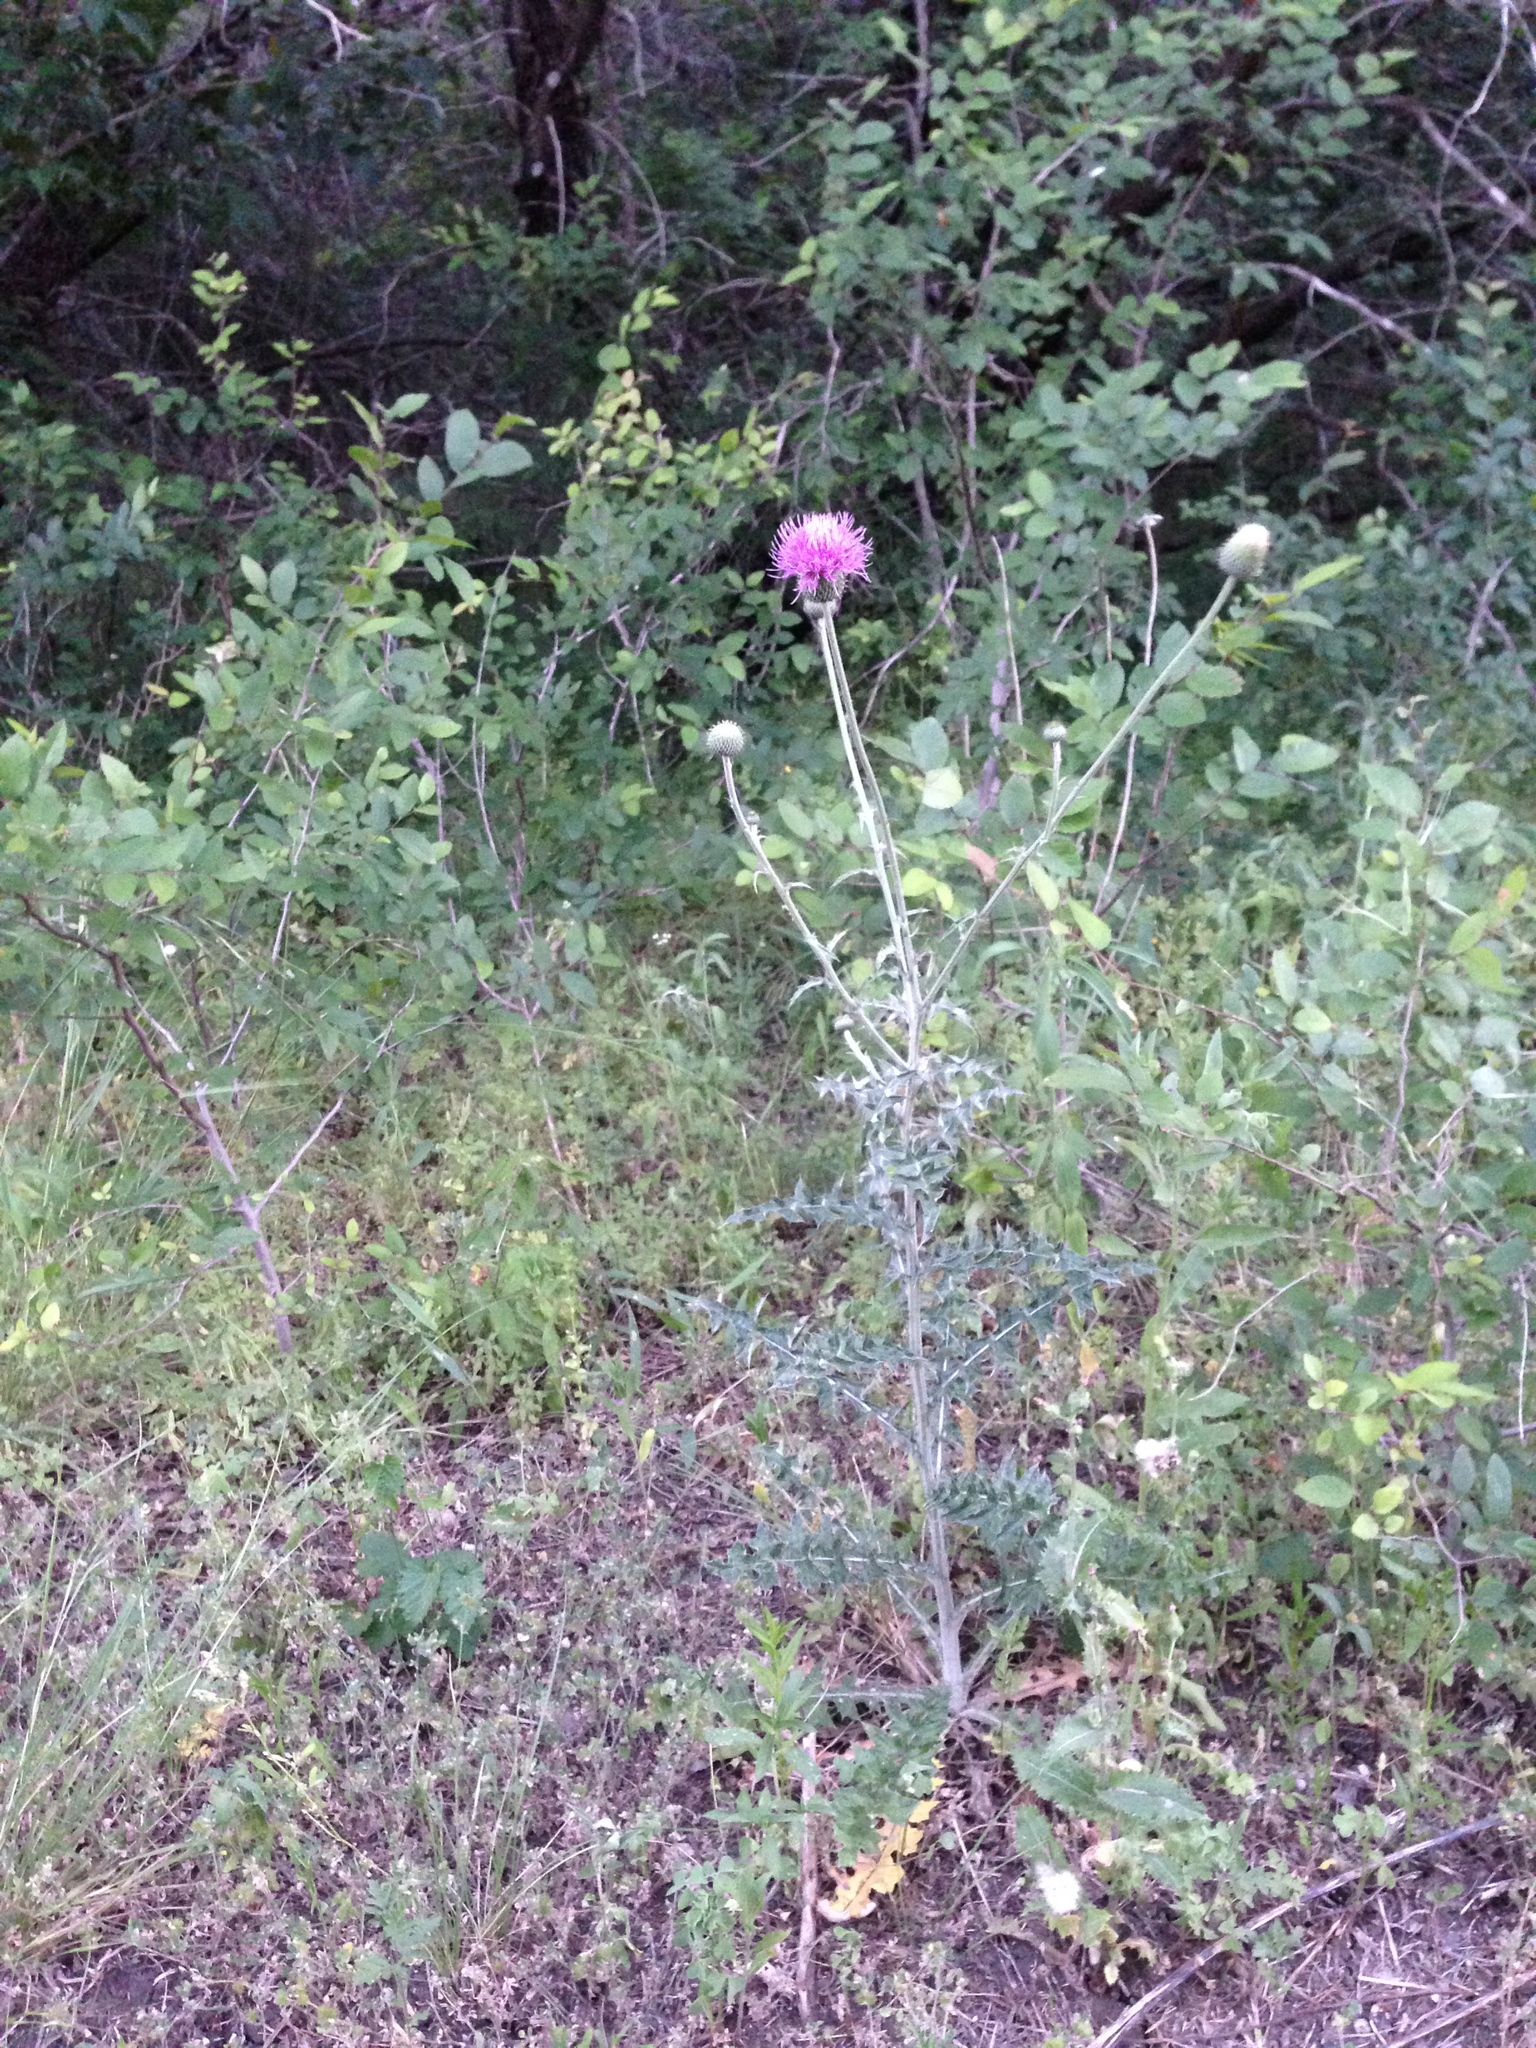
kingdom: Plantae
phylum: Tracheophyta
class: Magnoliopsida
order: Asterales
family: Asteraceae
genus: Cirsium
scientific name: Cirsium texanum
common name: Texas purple thistle
